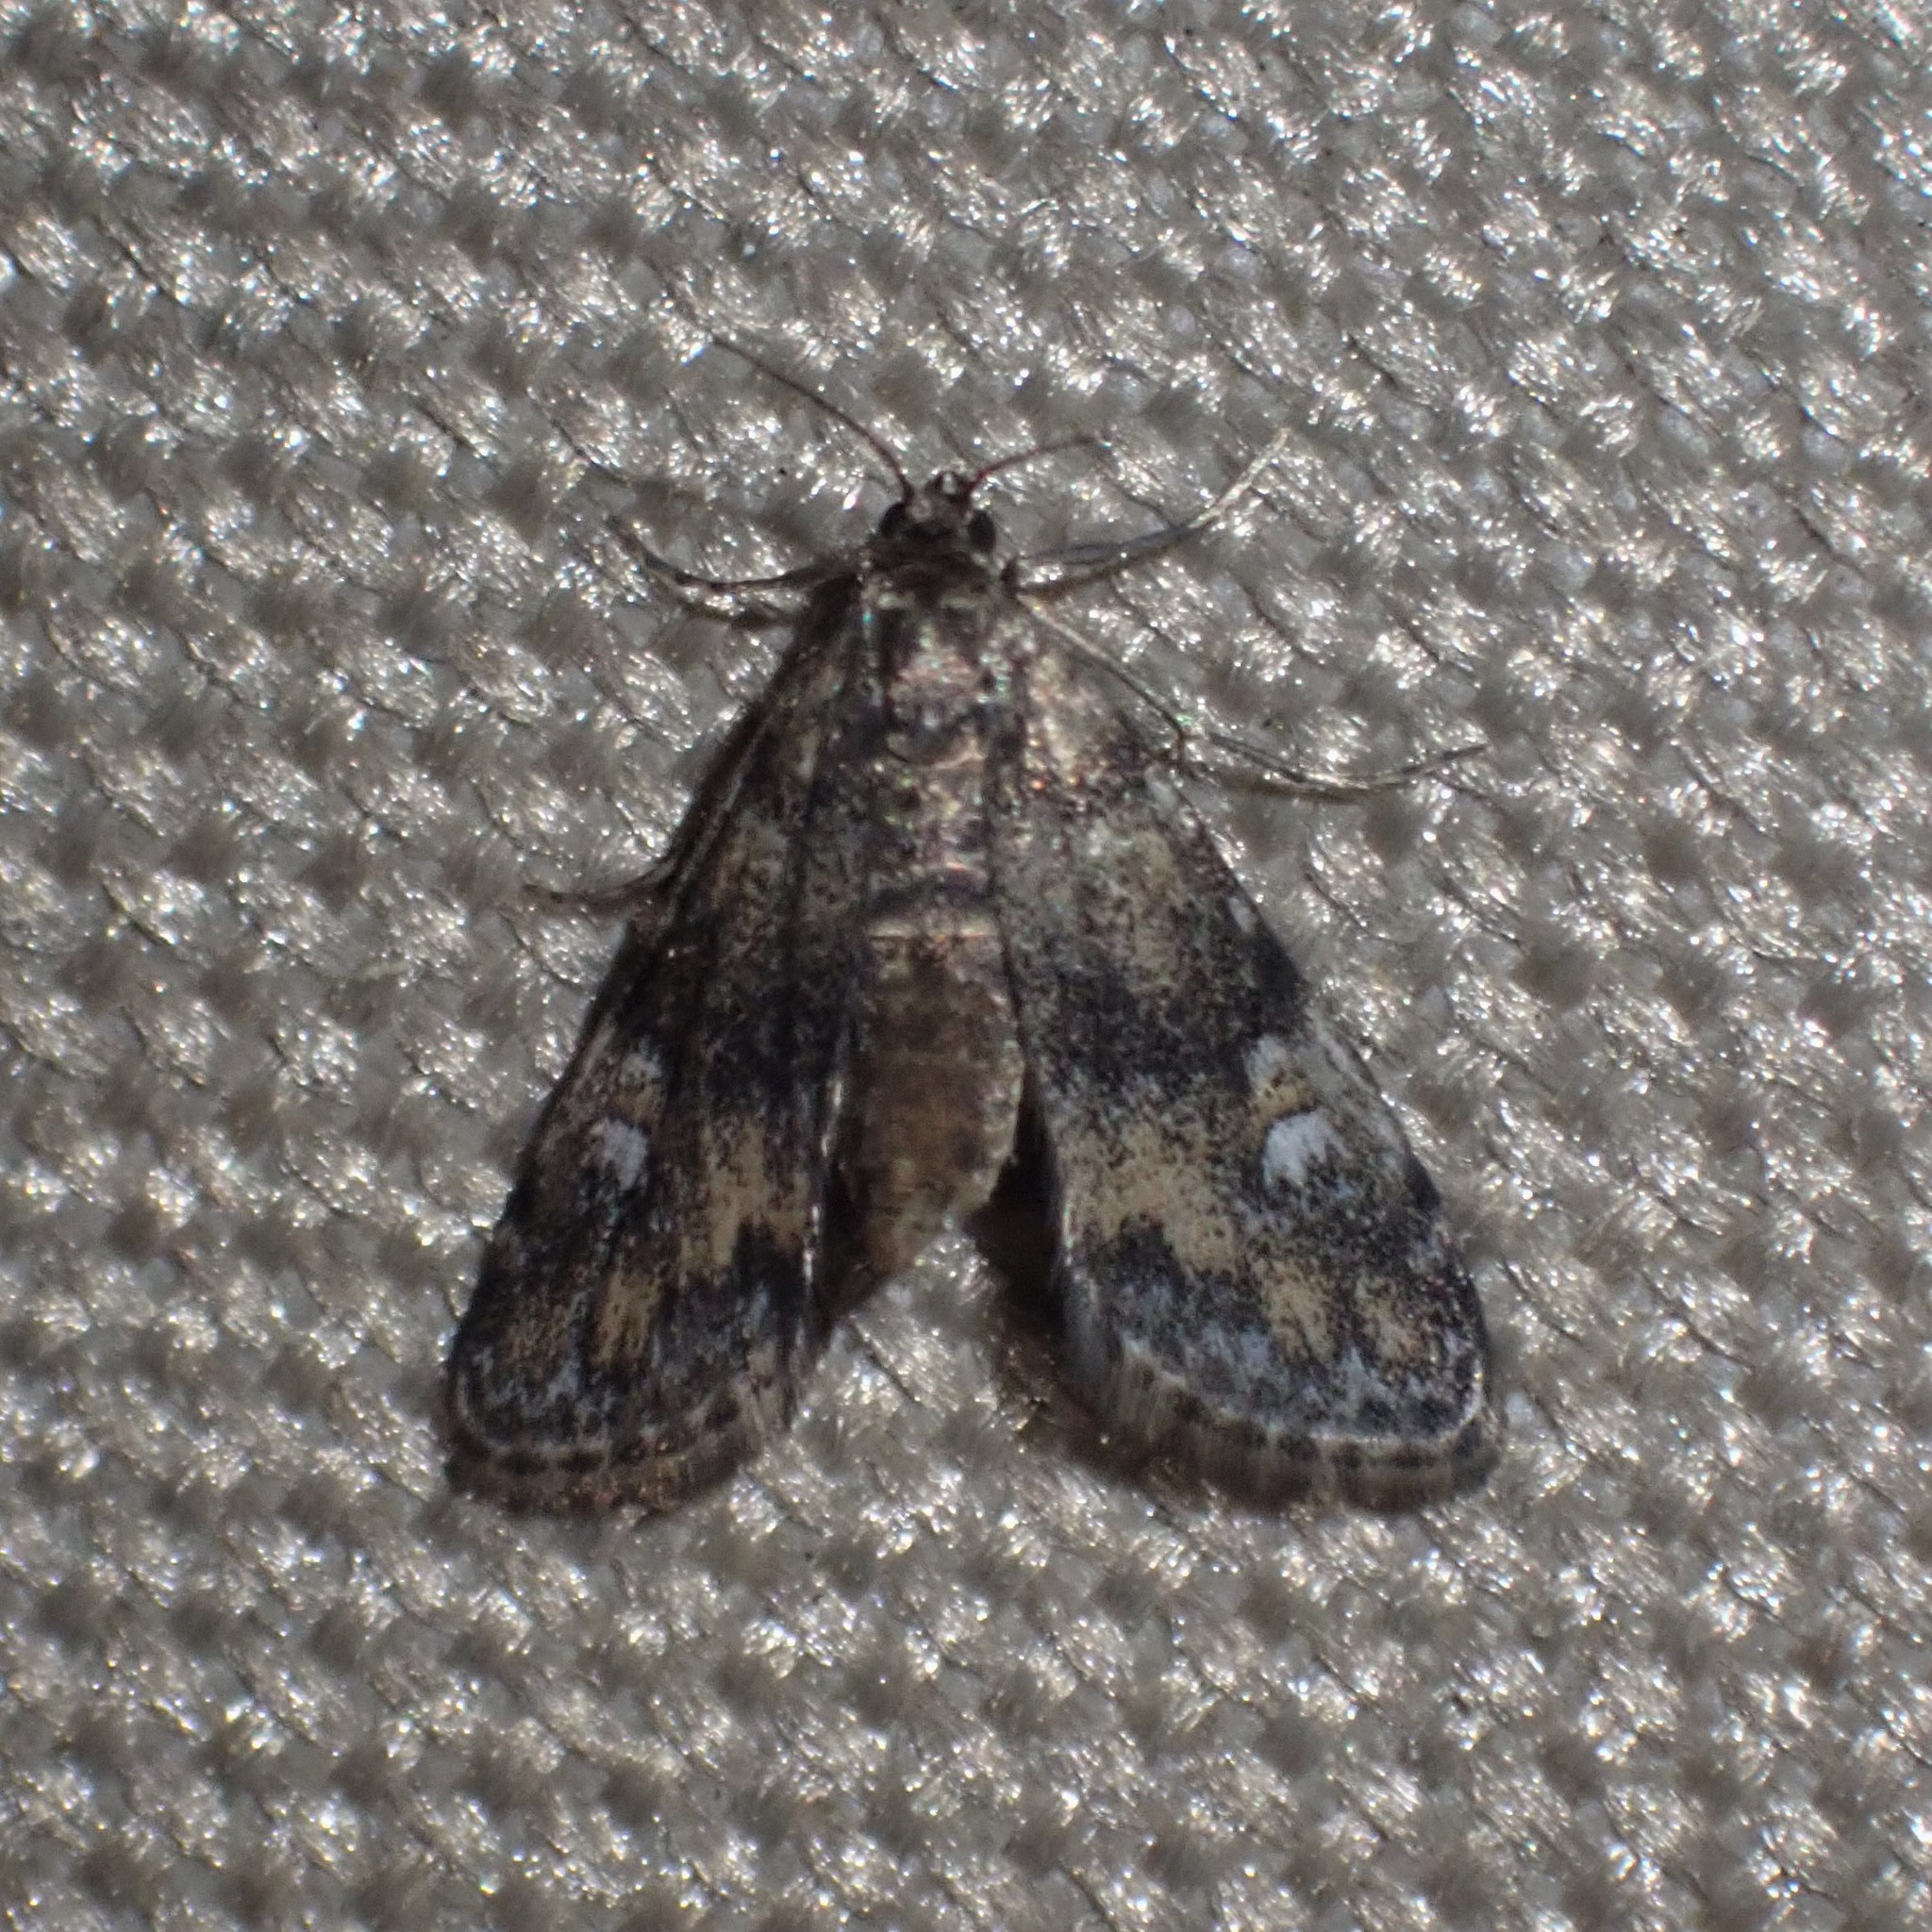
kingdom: Animalia
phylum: Arthropoda
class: Insecta
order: Lepidoptera
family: Crambidae
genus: Elophila
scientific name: Elophila obliteralis
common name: Waterlily leafcutter moth
